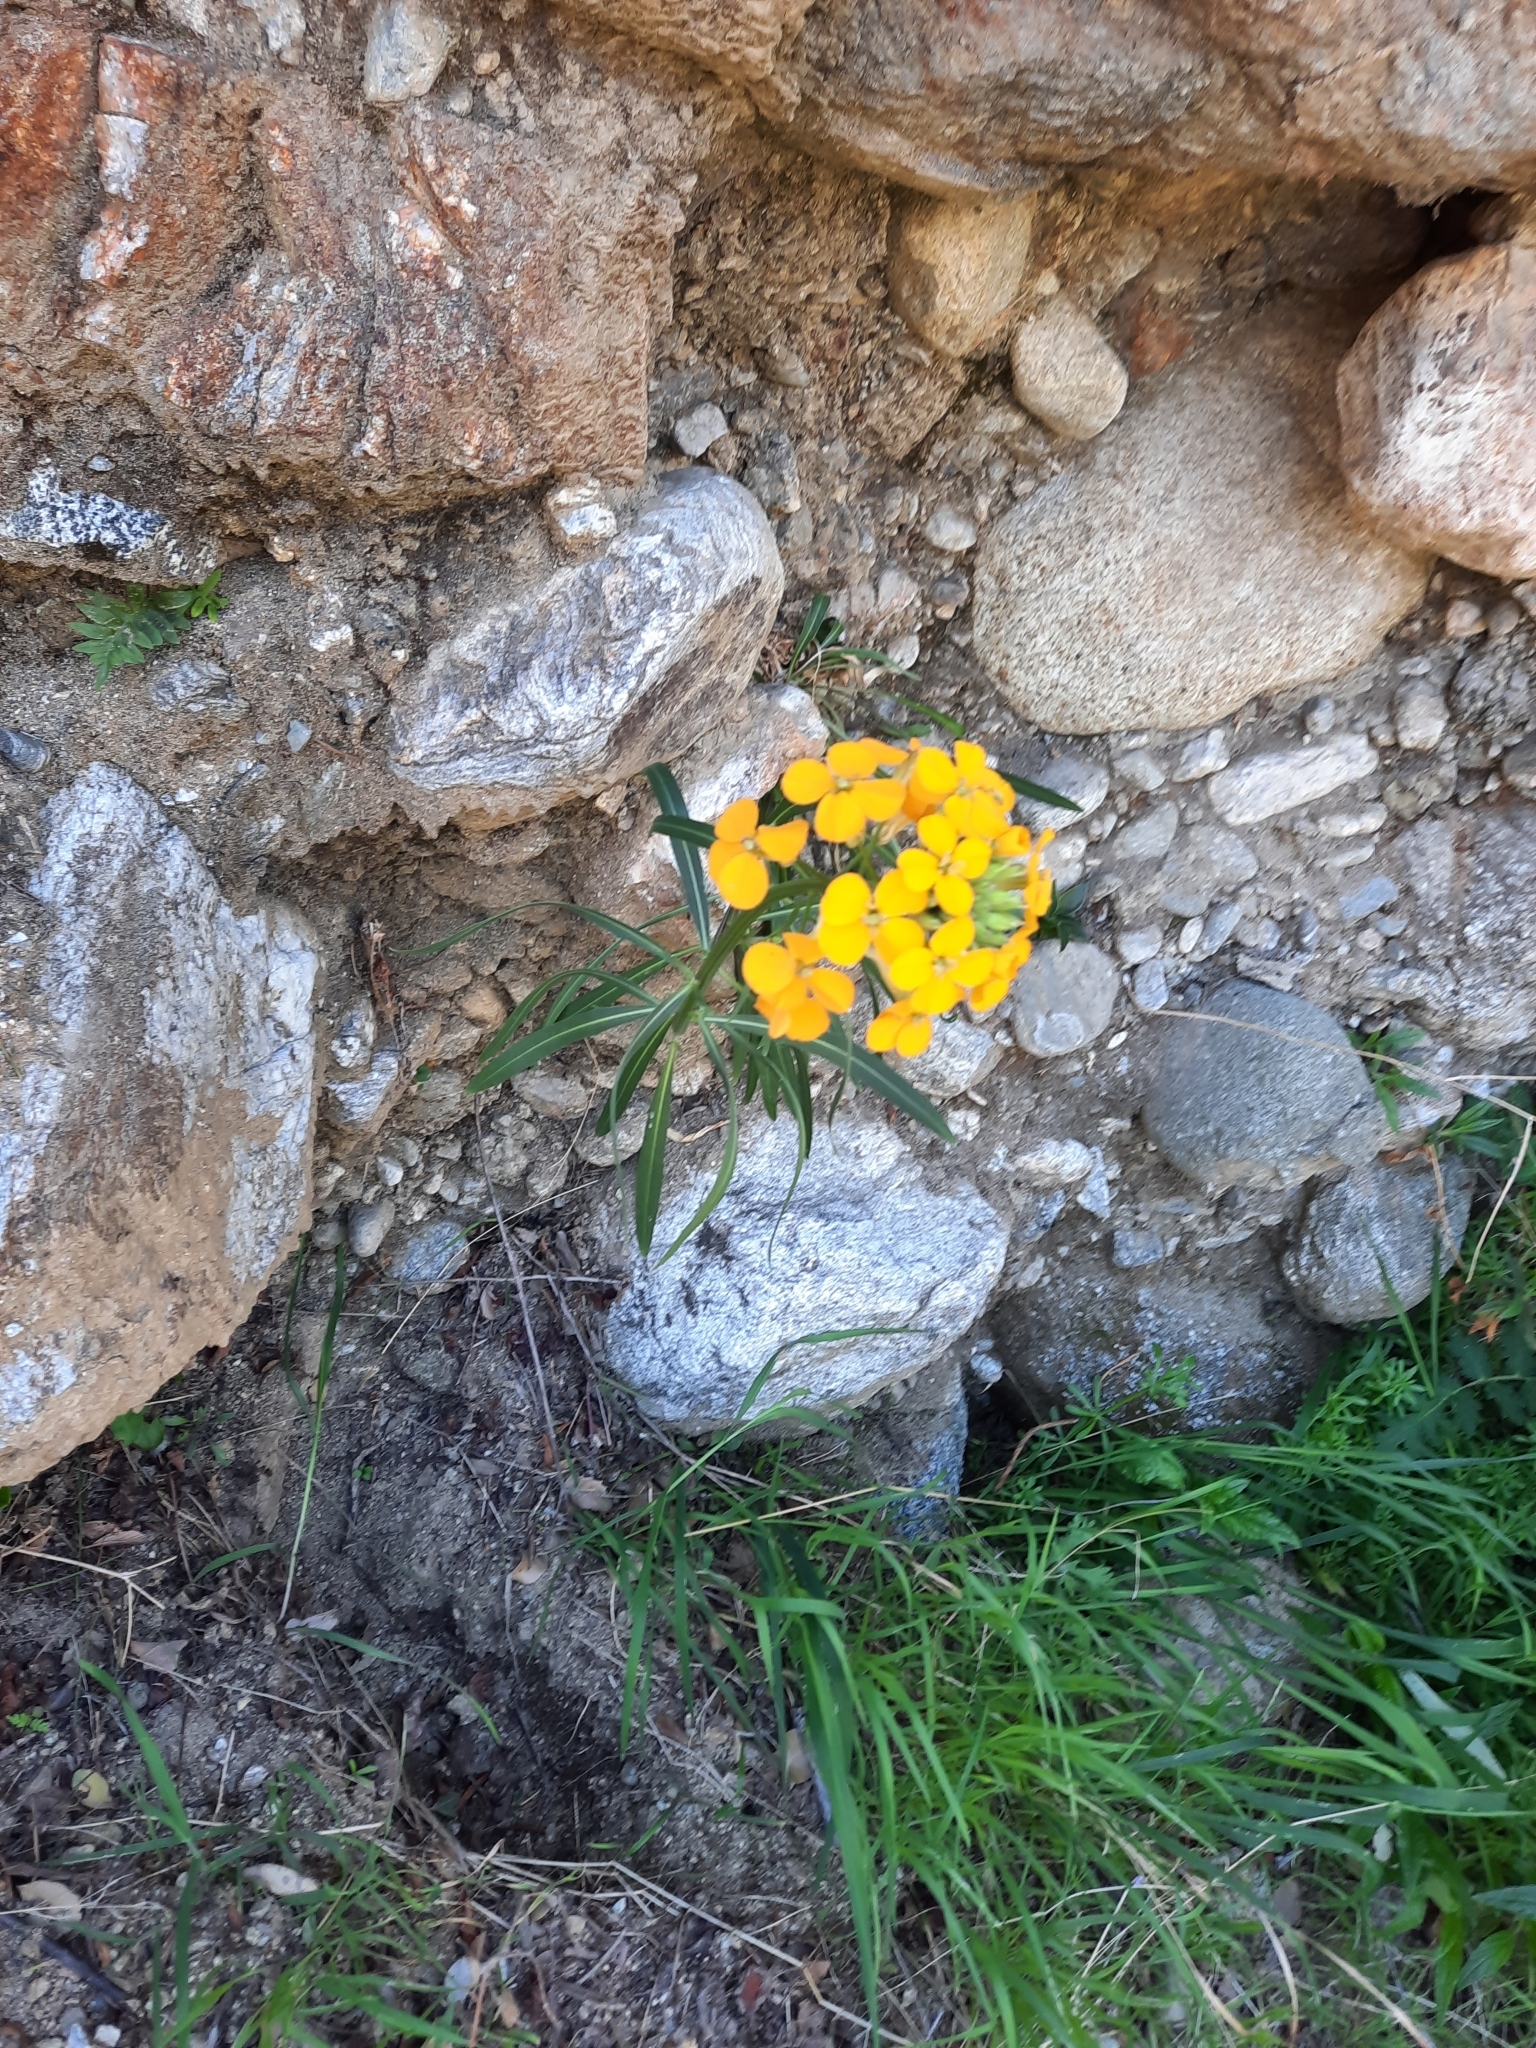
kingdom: Plantae
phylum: Tracheophyta
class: Magnoliopsida
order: Brassicales
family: Brassicaceae
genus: Erysimum
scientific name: Erysimum capitatum
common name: Western wallflower
